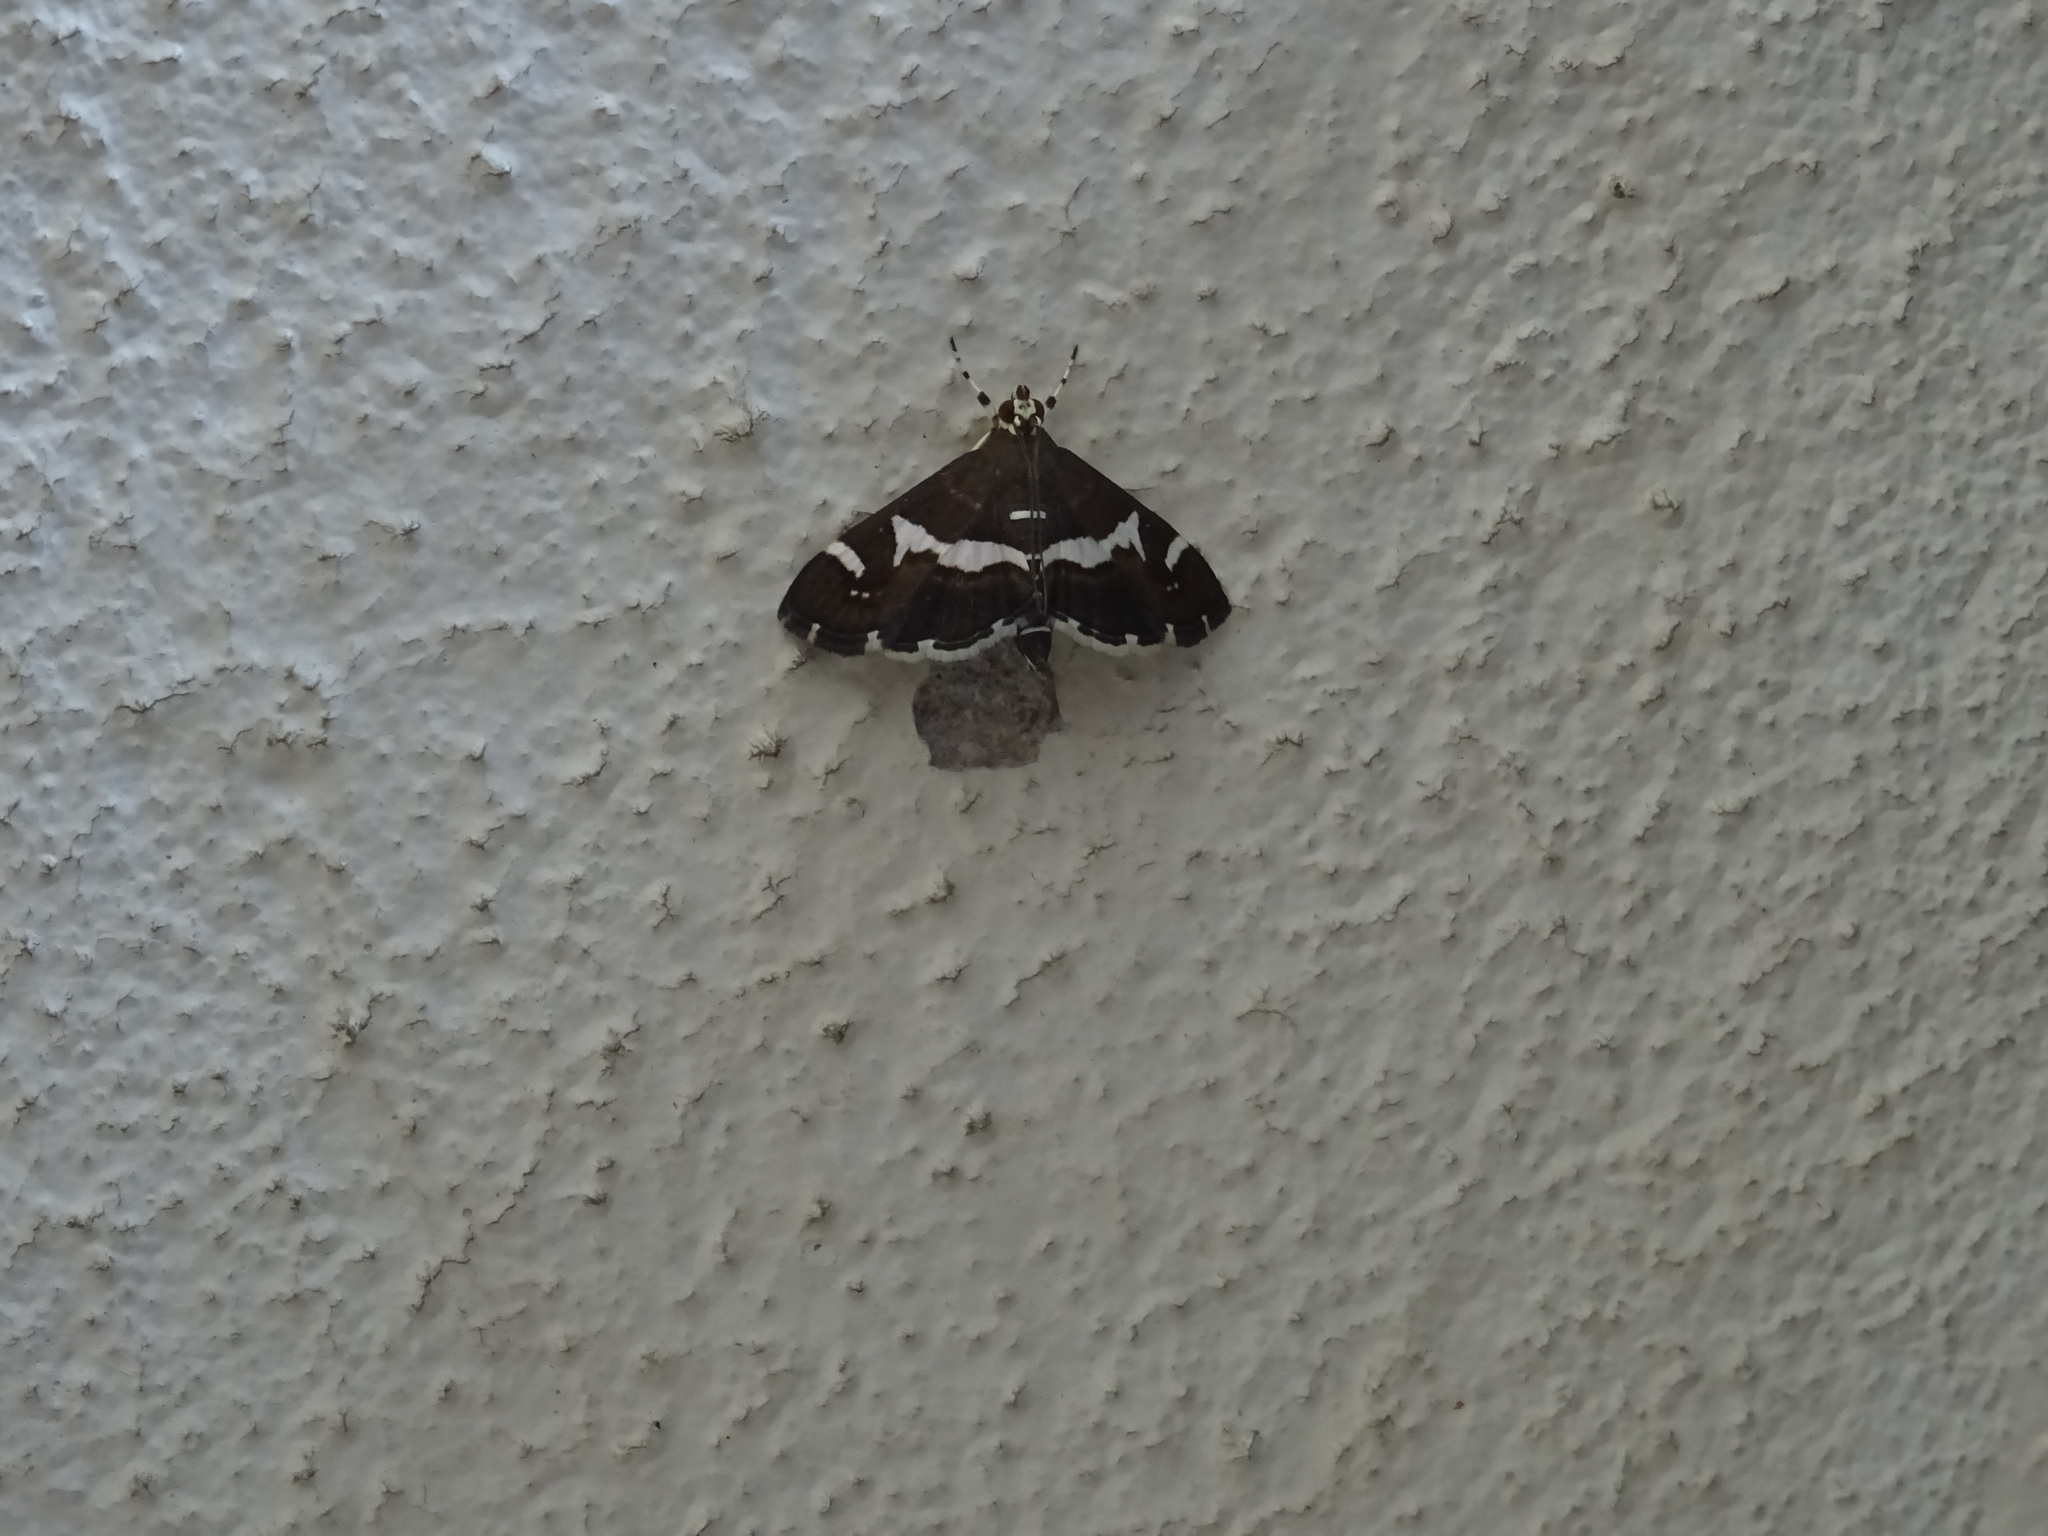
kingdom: Animalia
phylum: Arthropoda
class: Insecta
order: Lepidoptera
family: Crambidae
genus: Spoladea
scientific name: Spoladea recurvalis
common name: Beet webworm moth
